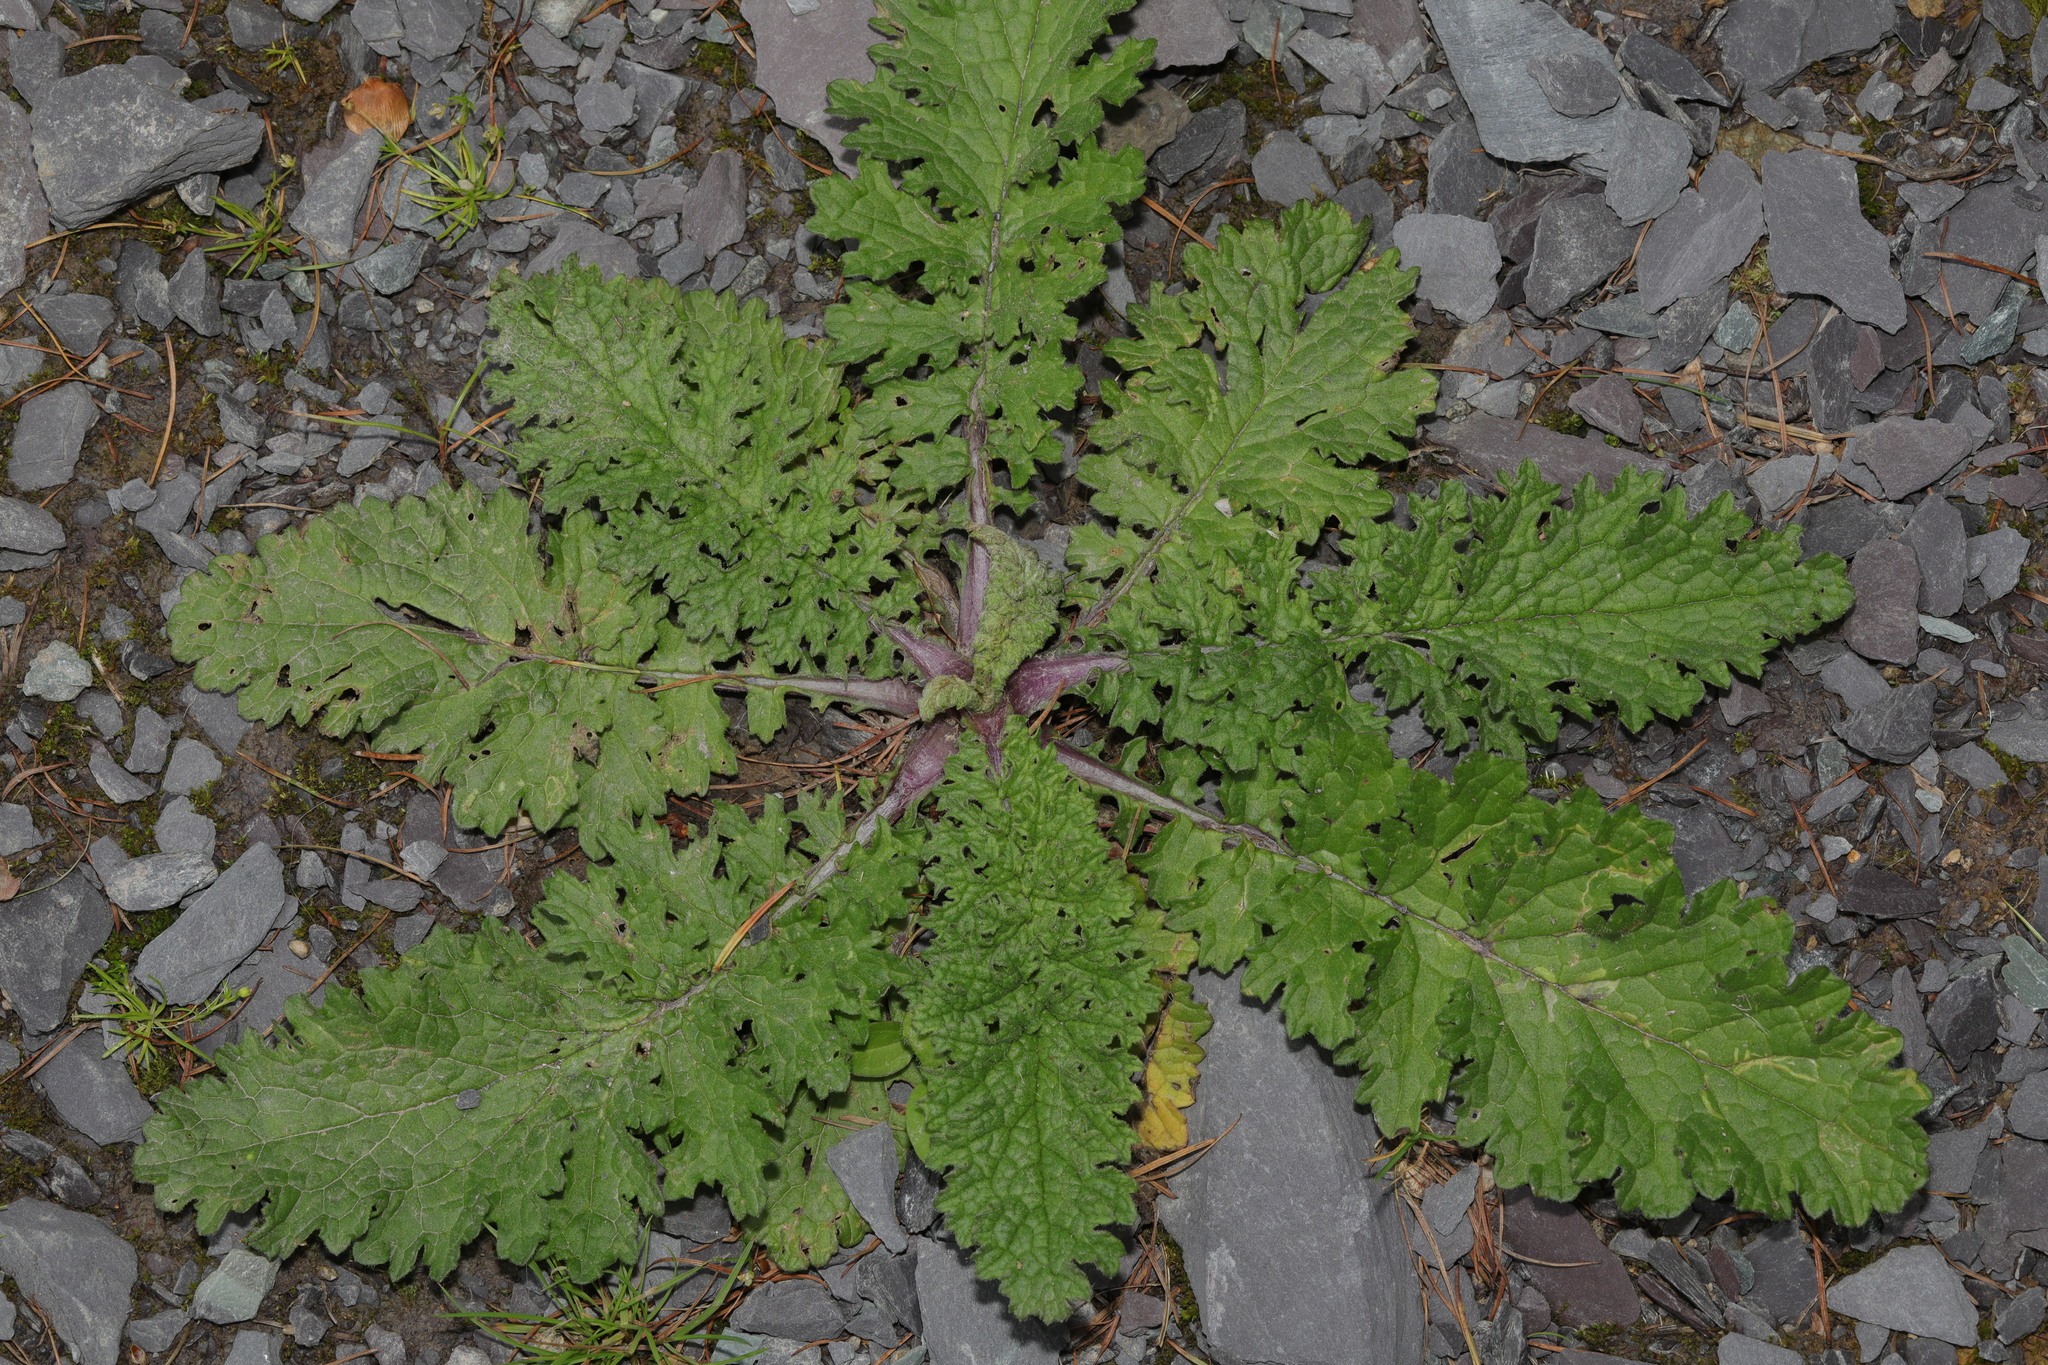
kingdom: Plantae
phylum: Tracheophyta
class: Magnoliopsida
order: Asterales
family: Asteraceae
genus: Jacobaea
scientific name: Jacobaea vulgaris
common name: Stinking willie
